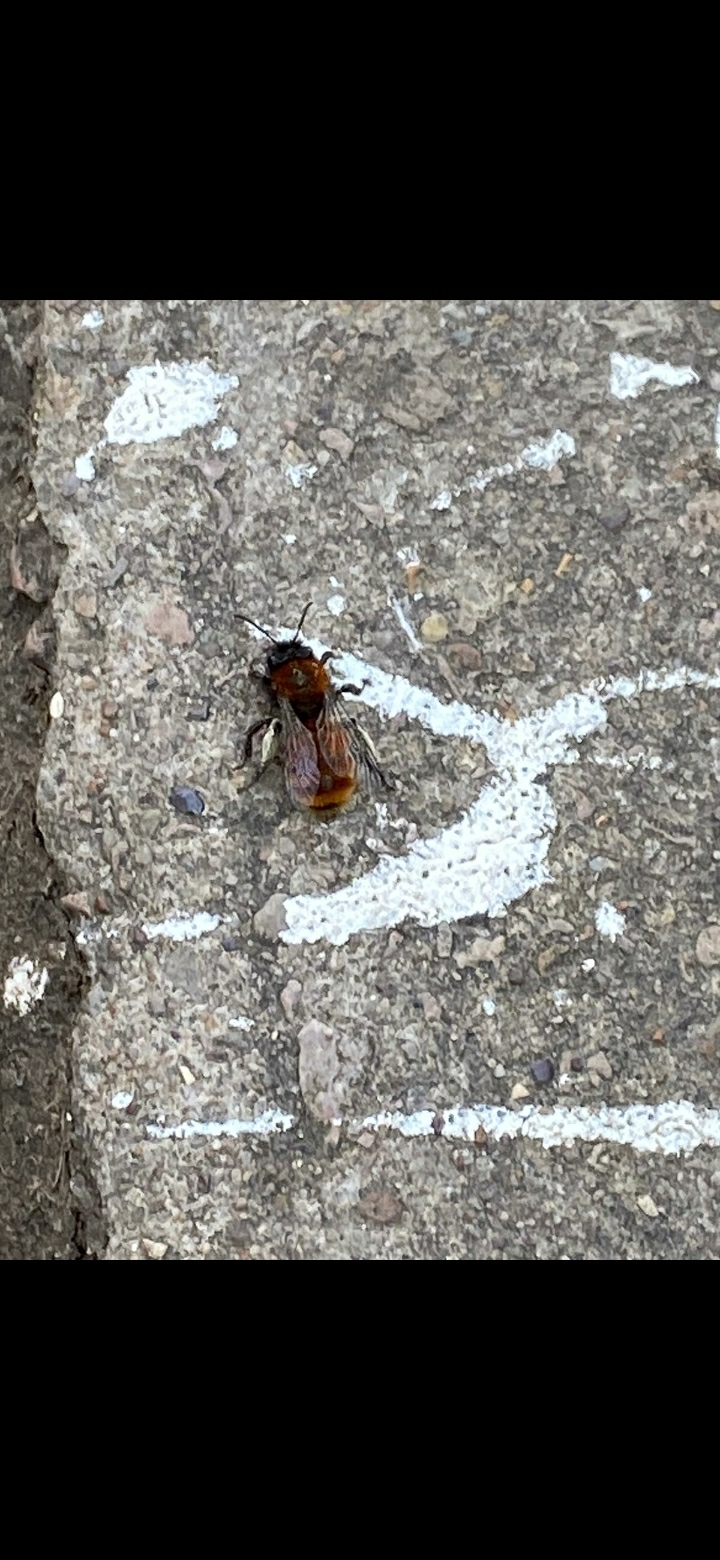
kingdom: Animalia
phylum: Arthropoda
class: Insecta
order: Hymenoptera
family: Andrenidae
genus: Andrena
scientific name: Andrena fulva
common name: Tawny mining bee
